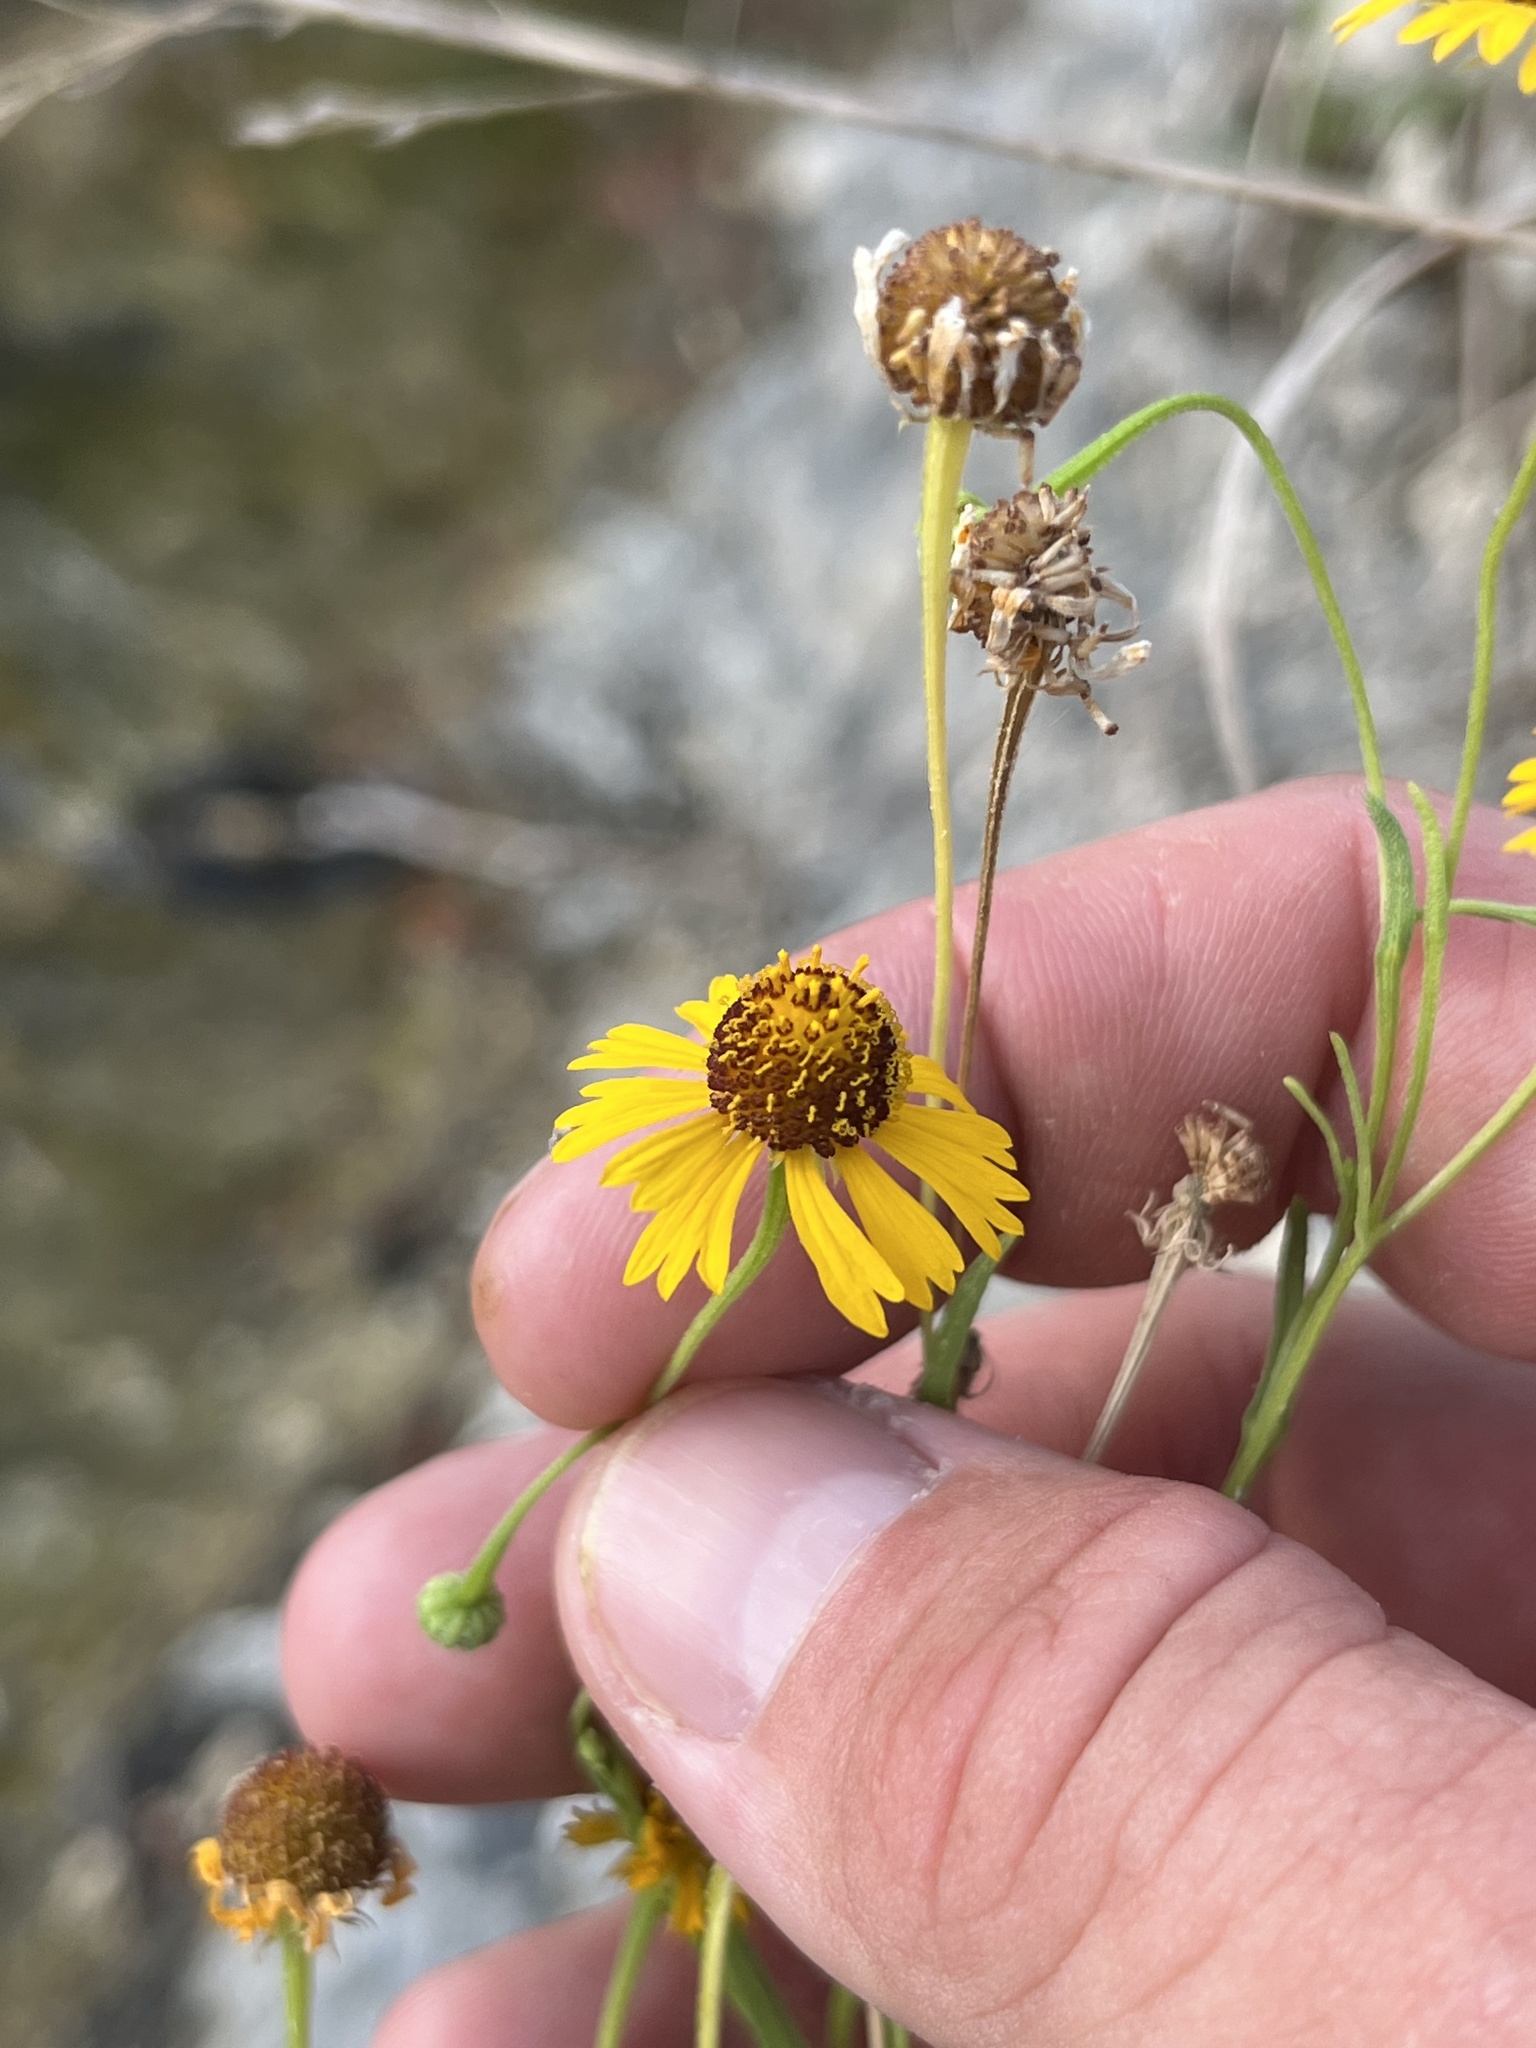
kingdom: Plantae
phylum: Tracheophyta
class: Magnoliopsida
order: Asterales
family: Asteraceae
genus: Helenium
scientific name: Helenium elegans
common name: Pretty sneezeweed
